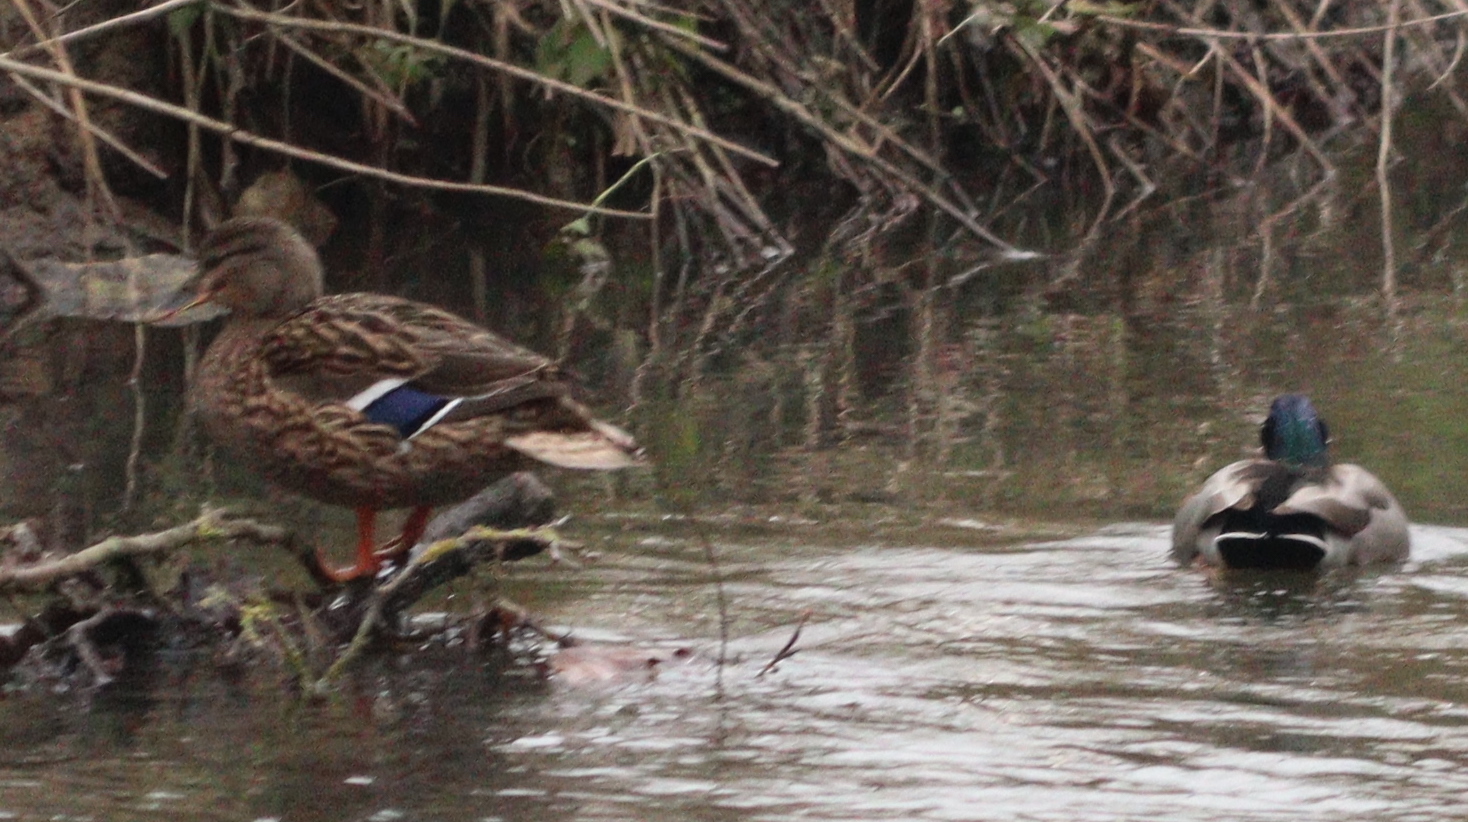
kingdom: Animalia
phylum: Chordata
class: Aves
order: Anseriformes
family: Anatidae
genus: Anas
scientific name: Anas platyrhynchos
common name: Mallard
